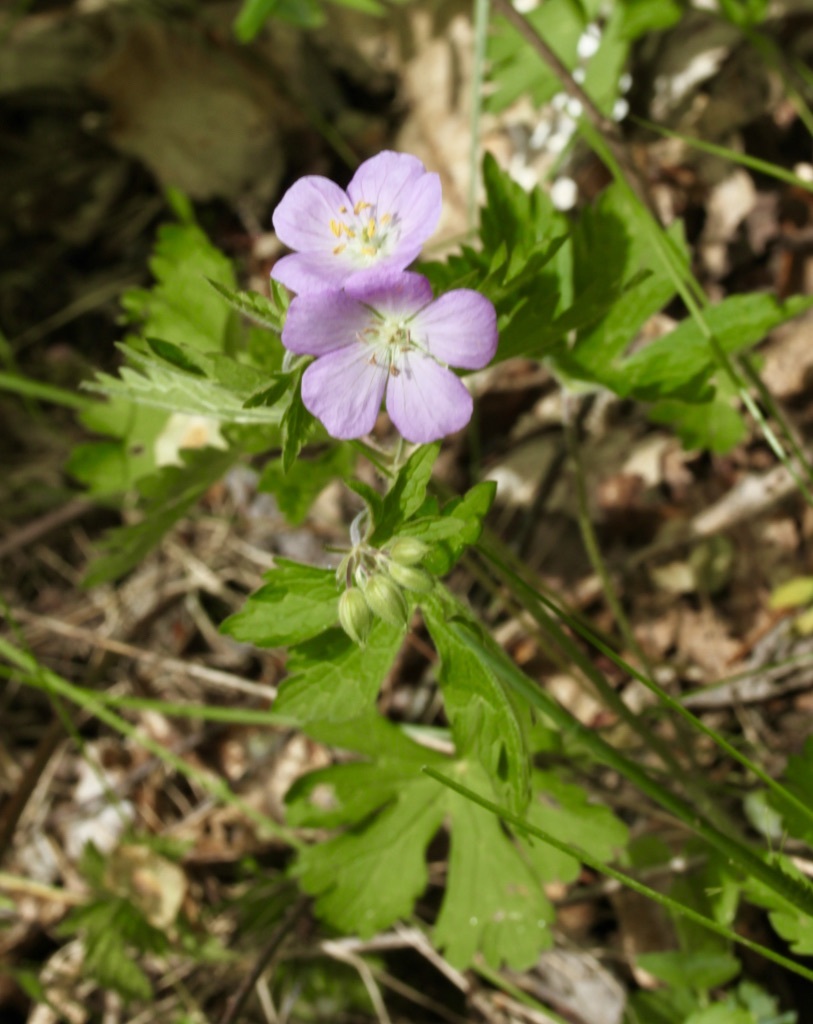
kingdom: Plantae
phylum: Tracheophyta
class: Magnoliopsida
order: Geraniales
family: Geraniaceae
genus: Geranium
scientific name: Geranium maculatum
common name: Spotted geranium
